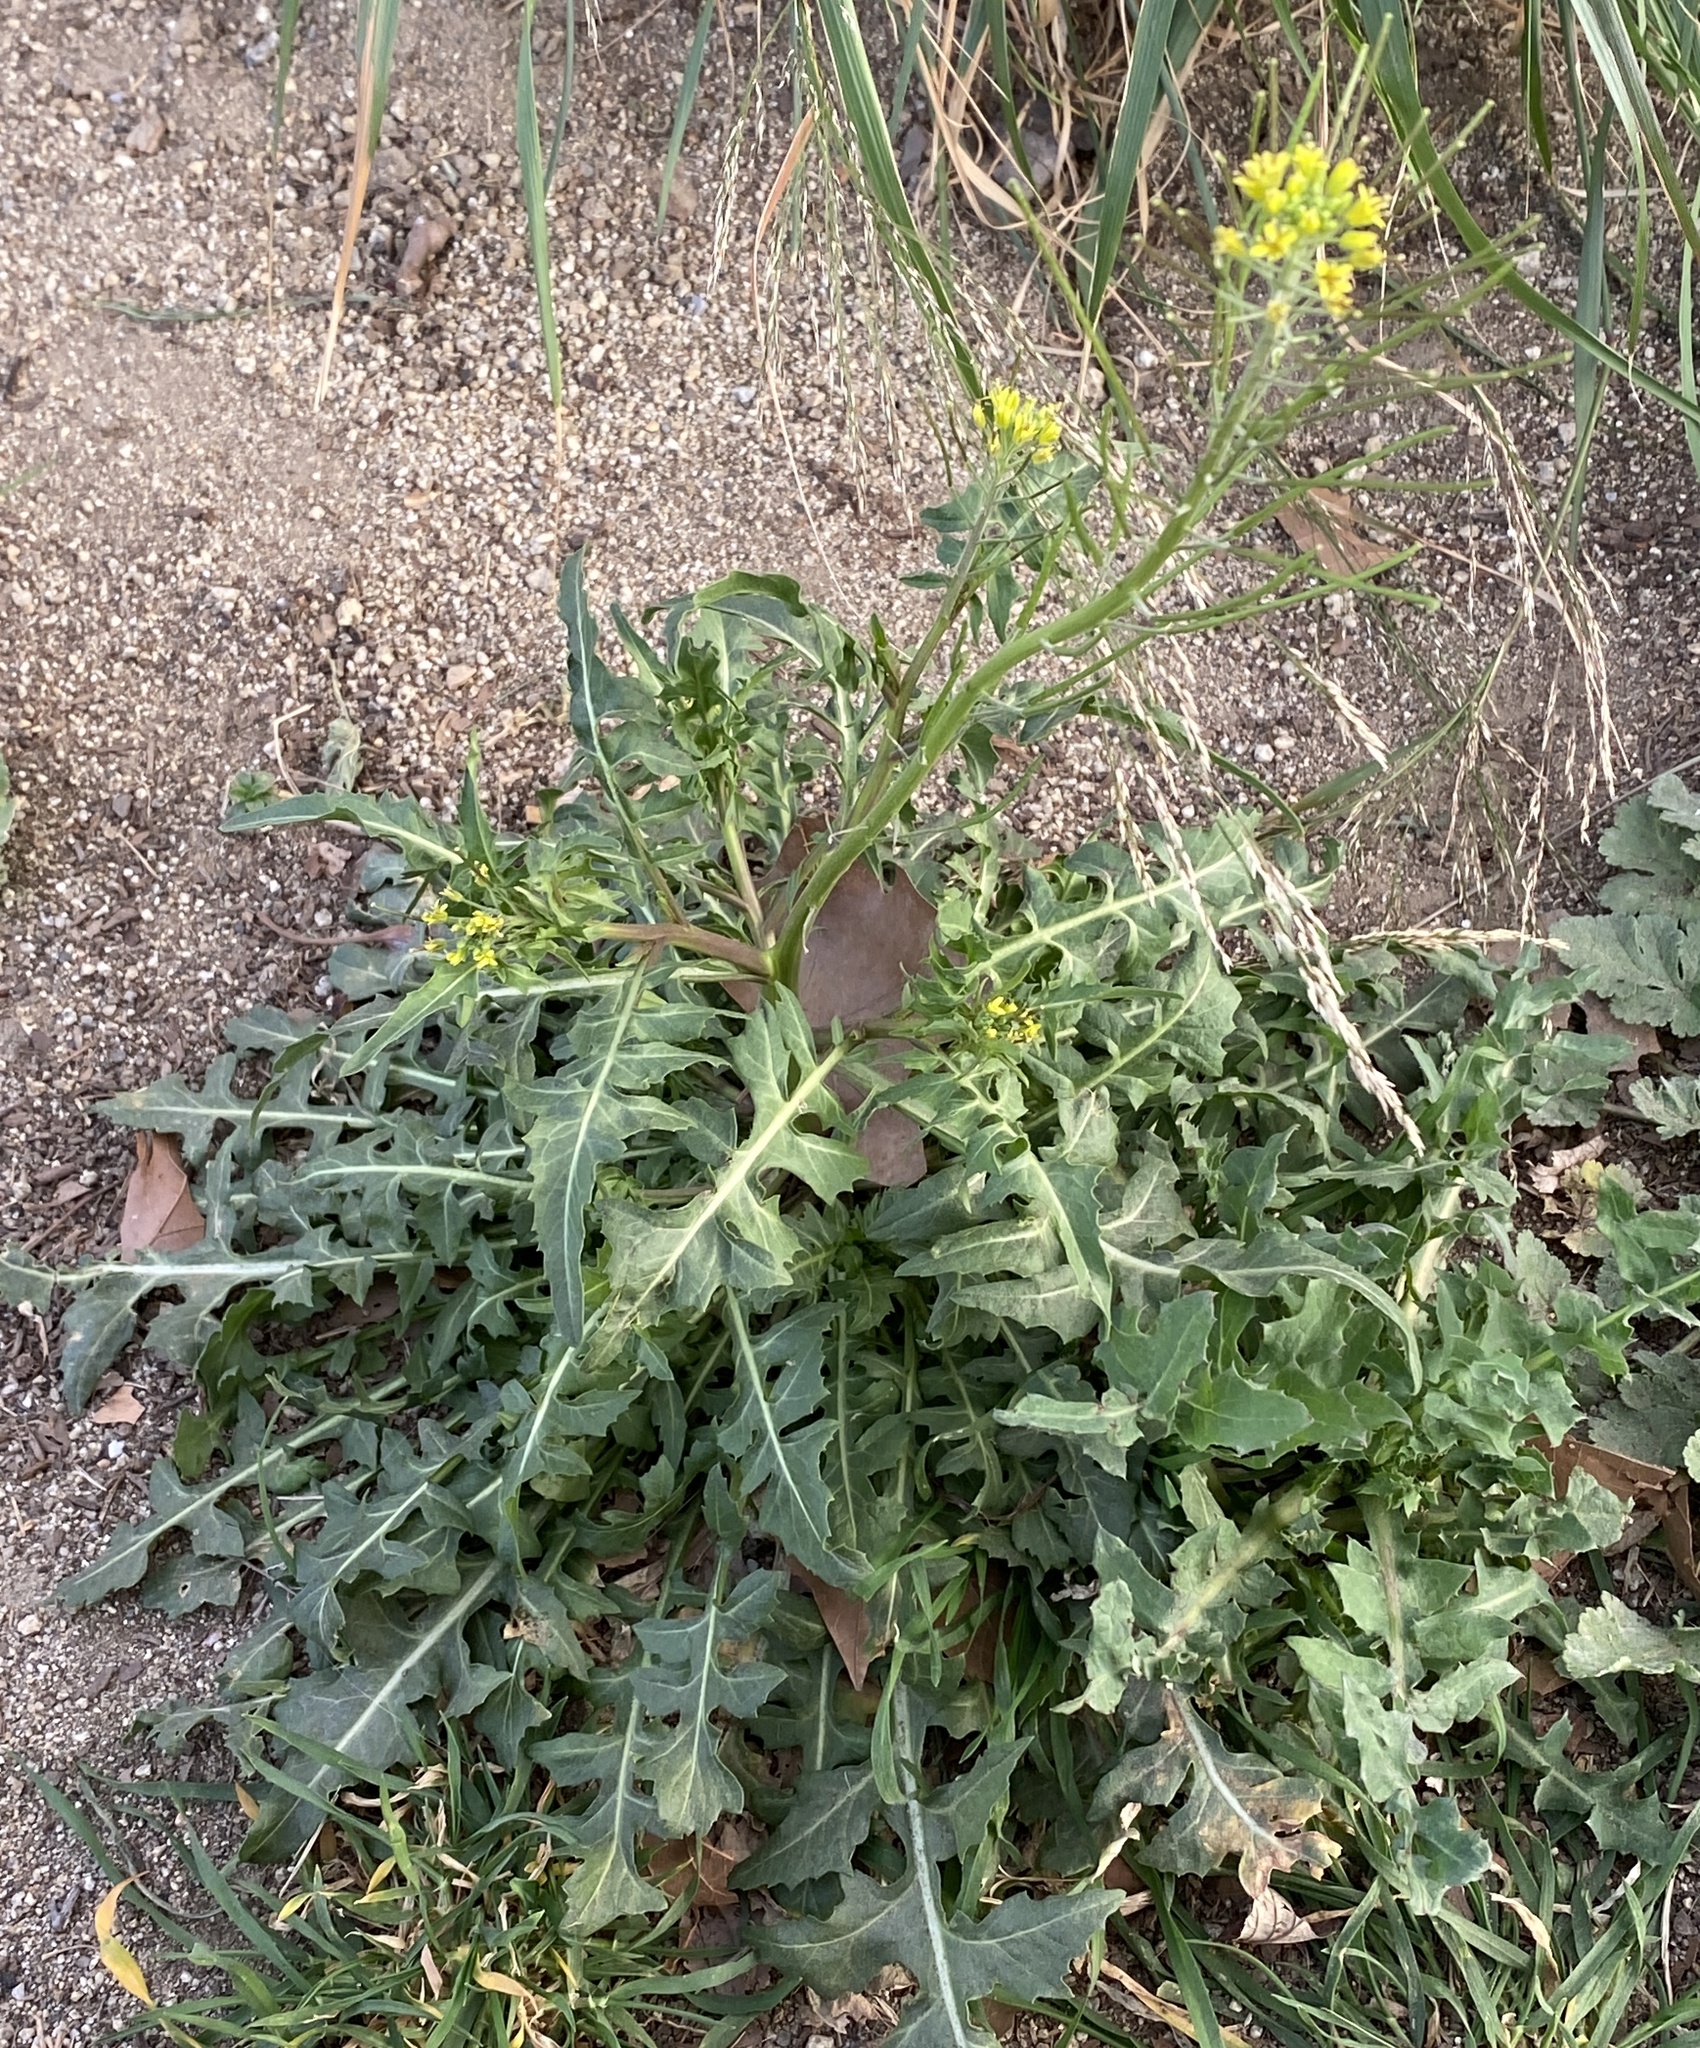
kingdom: Plantae
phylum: Tracheophyta
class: Magnoliopsida
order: Brassicales
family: Brassicaceae
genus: Sisymbrium
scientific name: Sisymbrium irio
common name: London rocket
